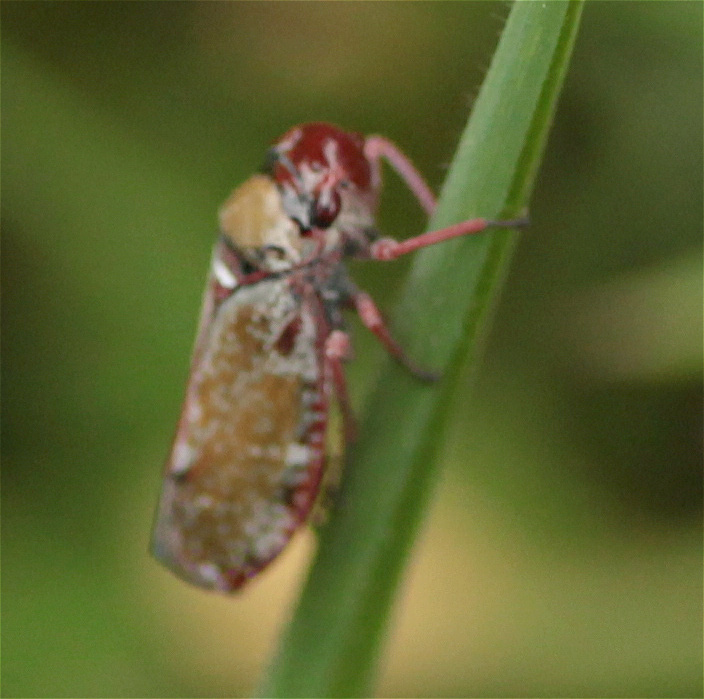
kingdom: Animalia
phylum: Arthropoda
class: Insecta
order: Hemiptera
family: Cicadellidae
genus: Paracatua
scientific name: Paracatua rubrolimbata
